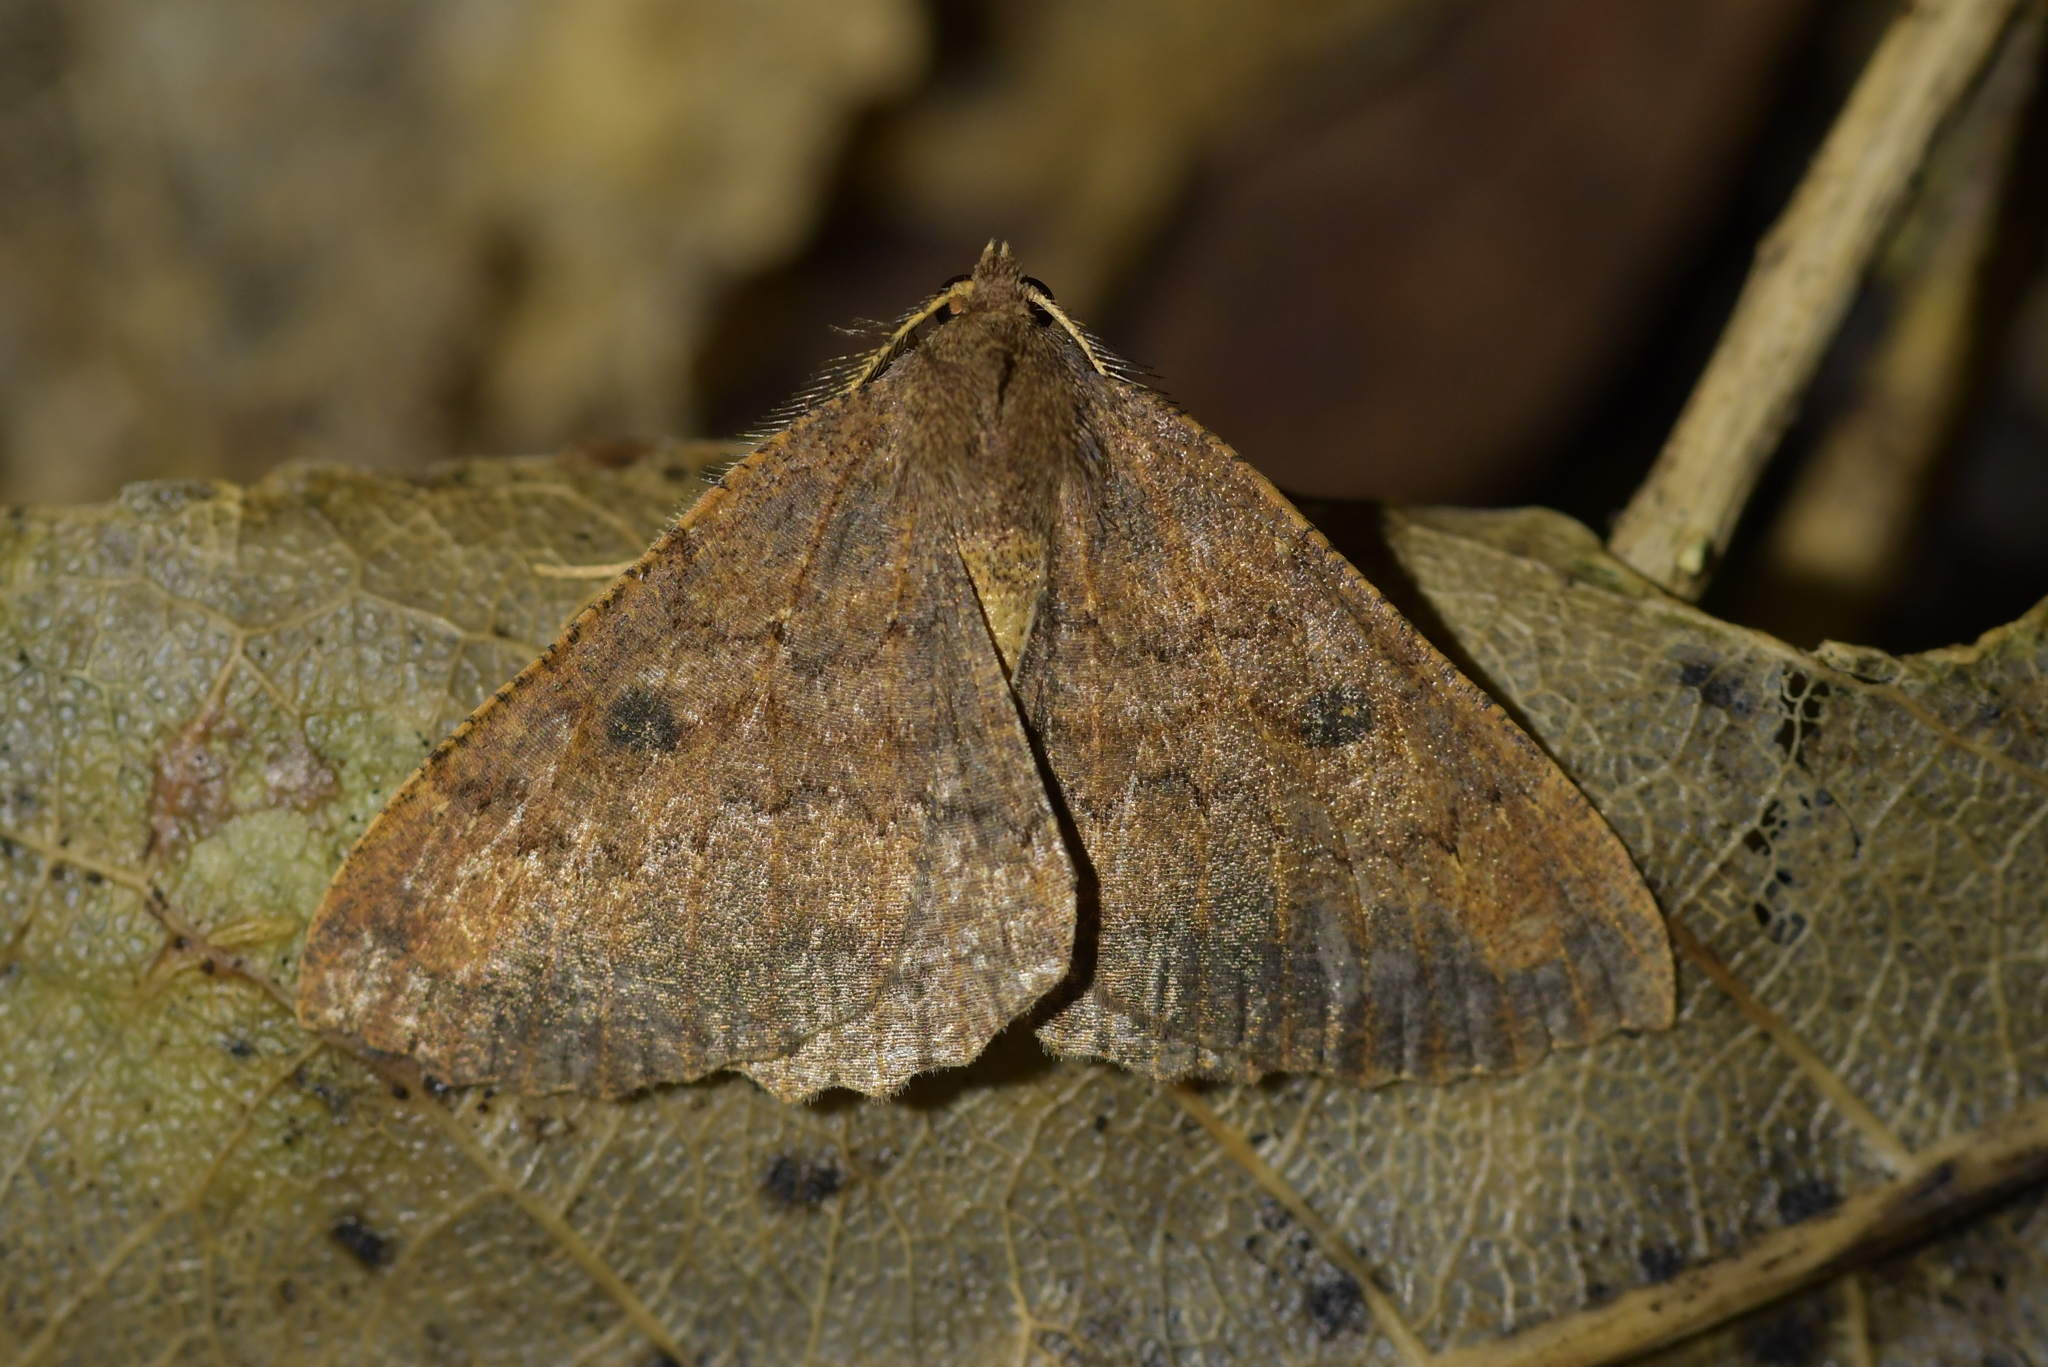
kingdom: Animalia
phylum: Arthropoda
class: Insecta
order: Lepidoptera
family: Geometridae
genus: Cleora
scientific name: Cleora scriptaria
